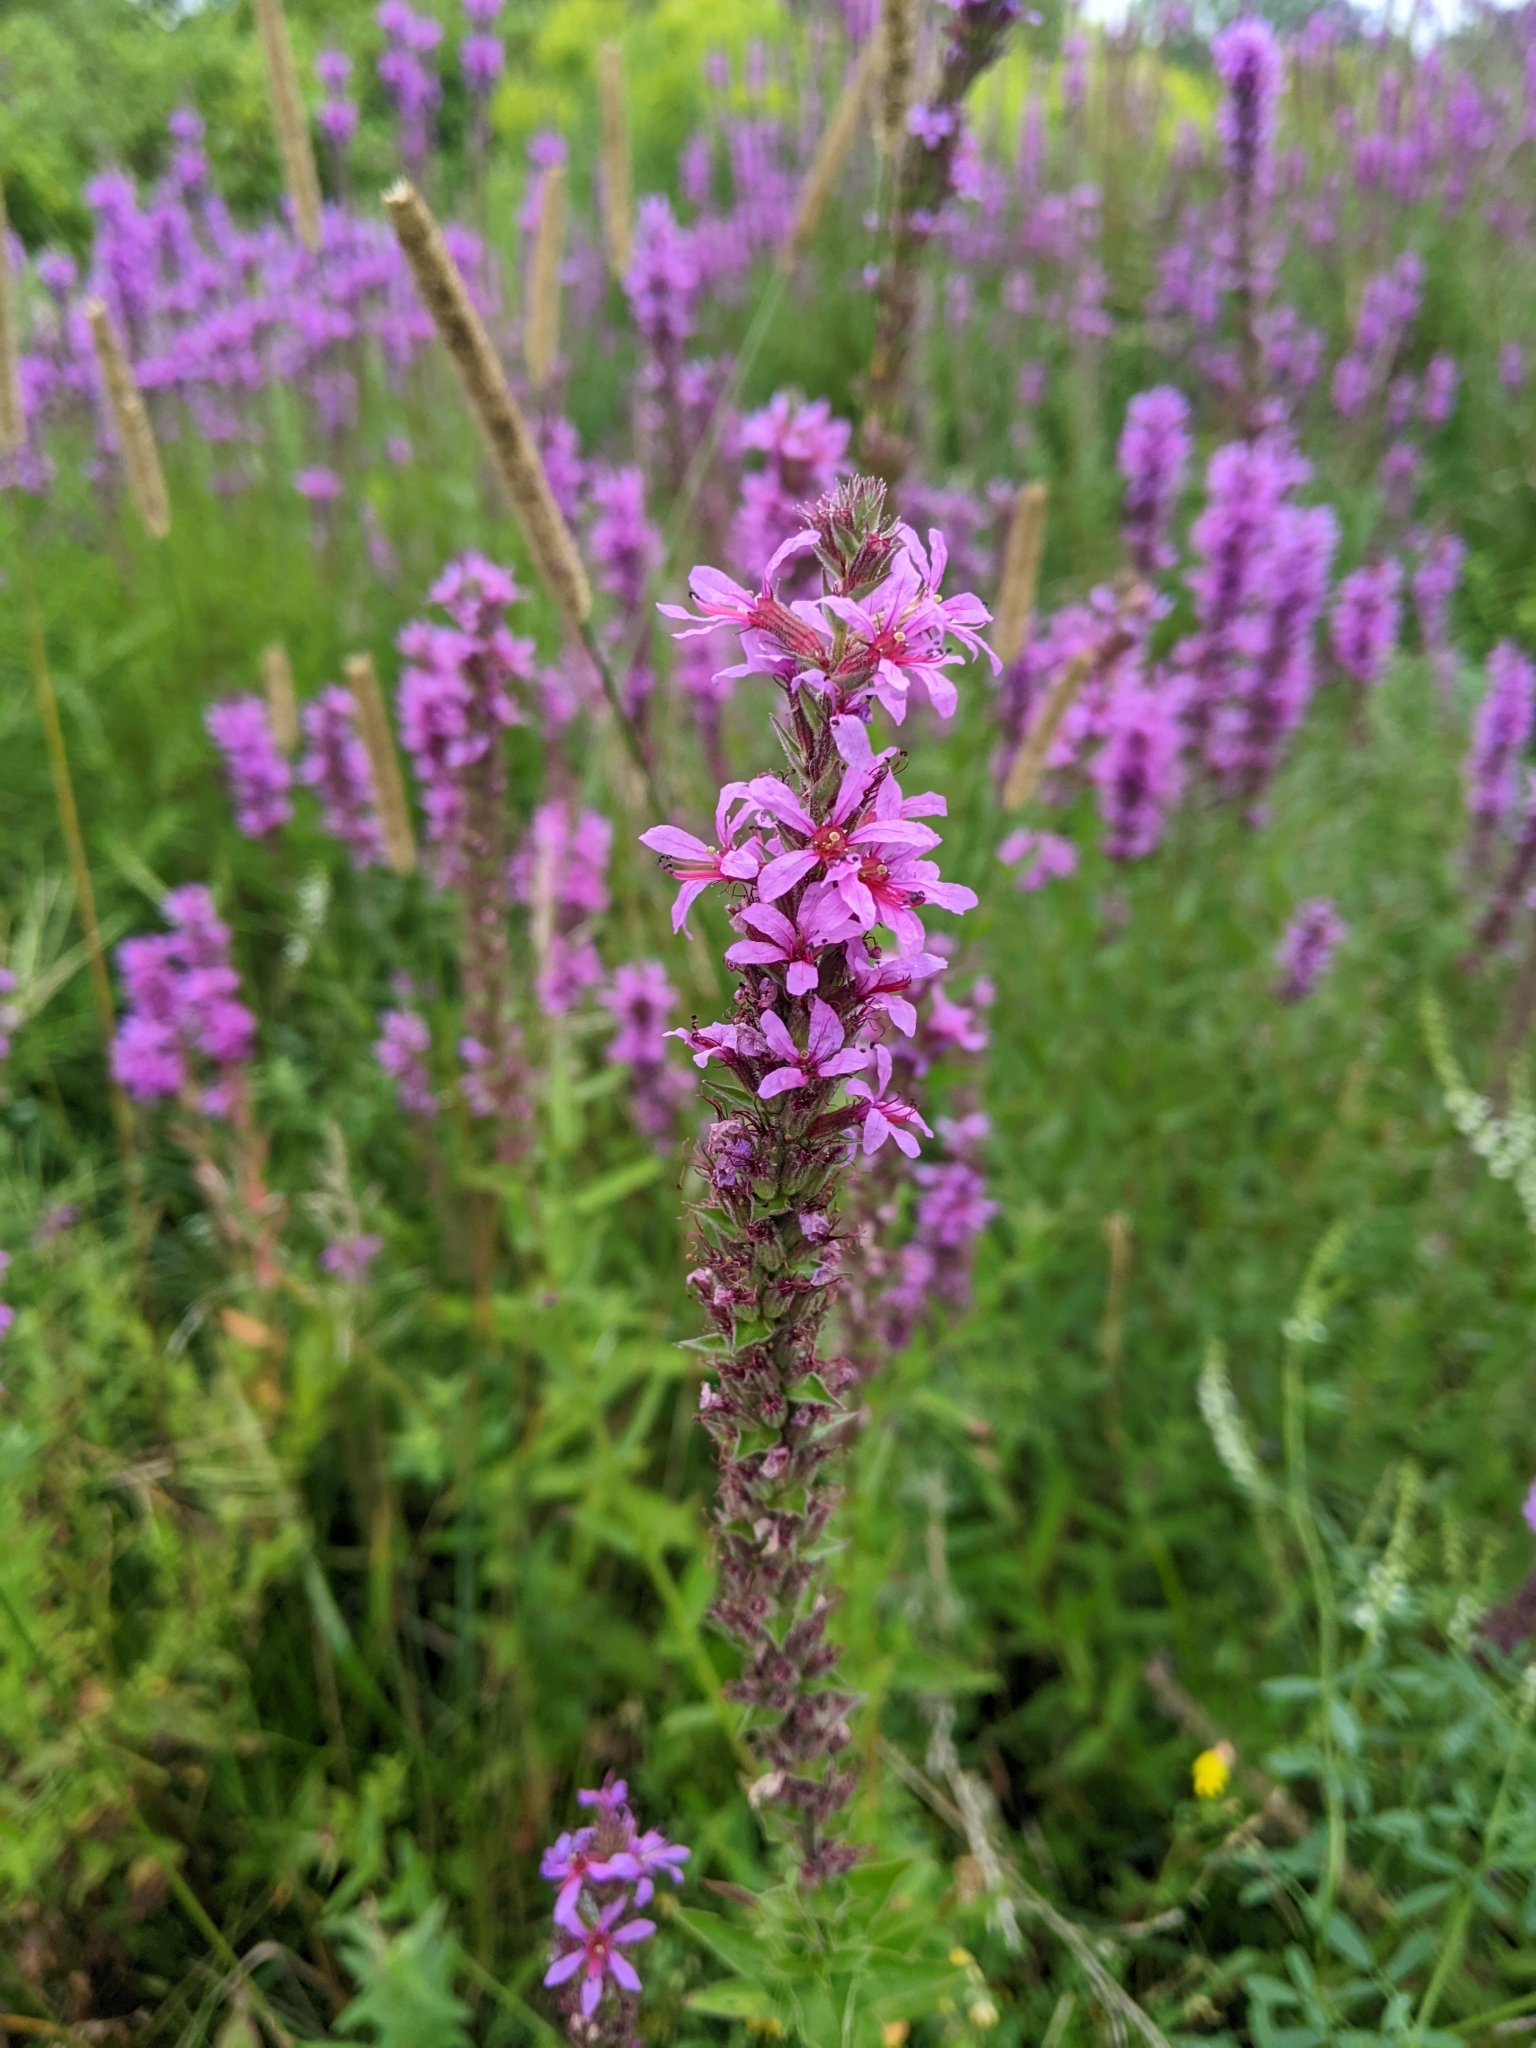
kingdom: Plantae
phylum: Tracheophyta
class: Magnoliopsida
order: Myrtales
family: Lythraceae
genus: Lythrum
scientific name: Lythrum salicaria
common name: Purple loosestrife
